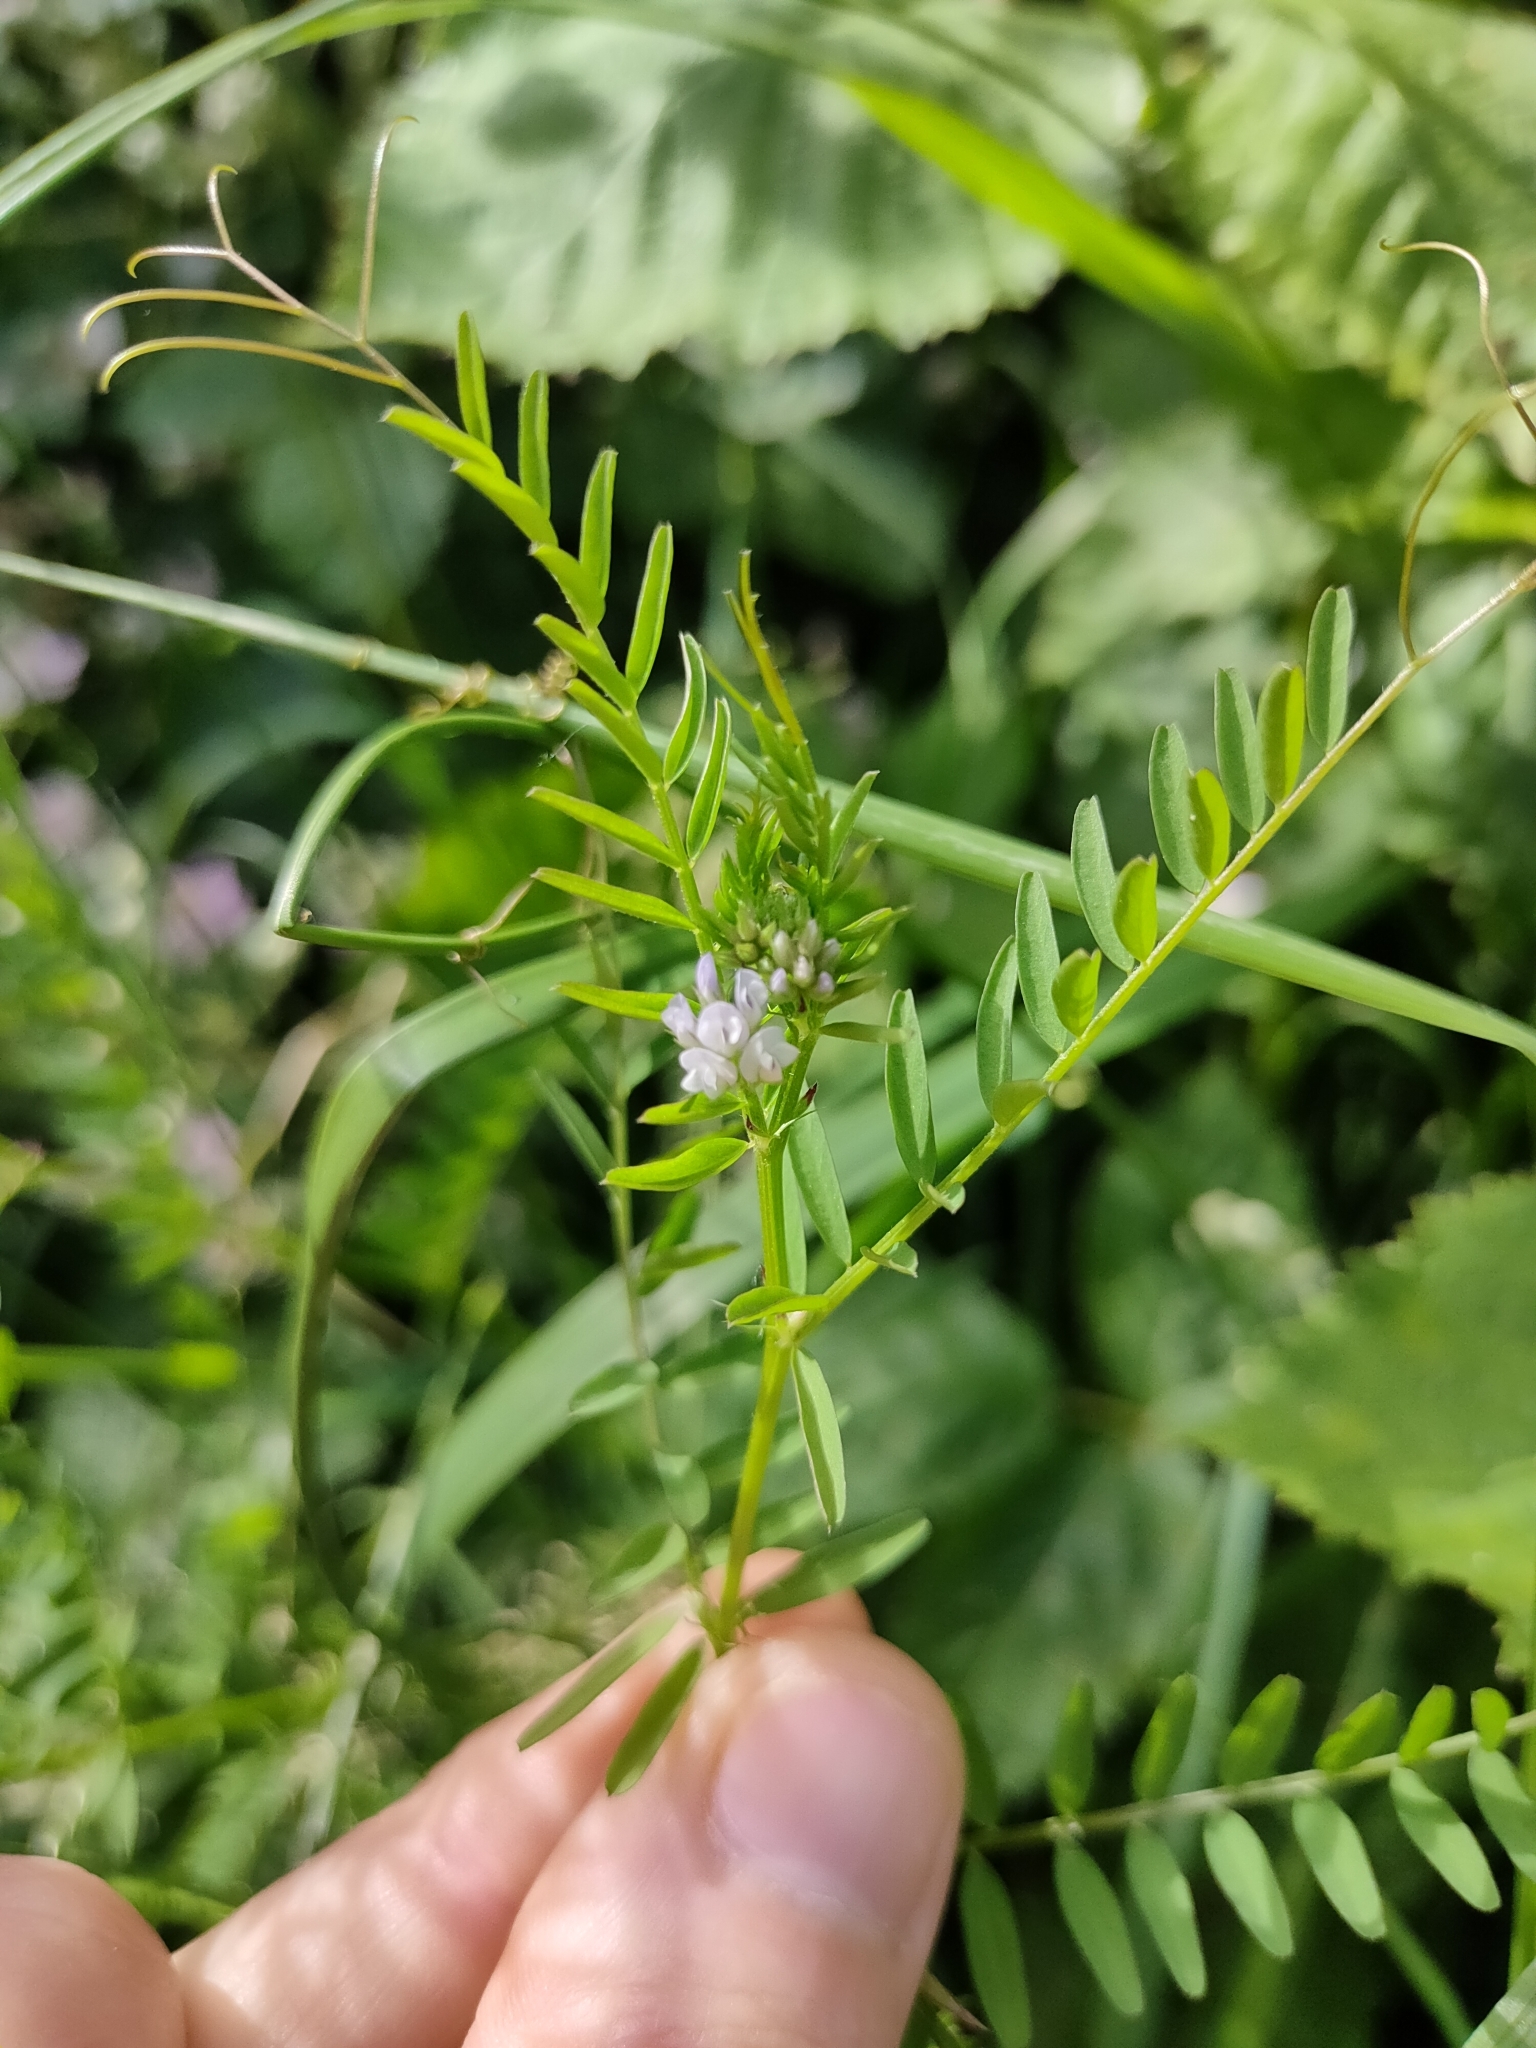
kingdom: Plantae
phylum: Tracheophyta
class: Magnoliopsida
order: Fabales
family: Fabaceae
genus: Vicia
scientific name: Vicia hirsuta
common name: Tiny vetch
